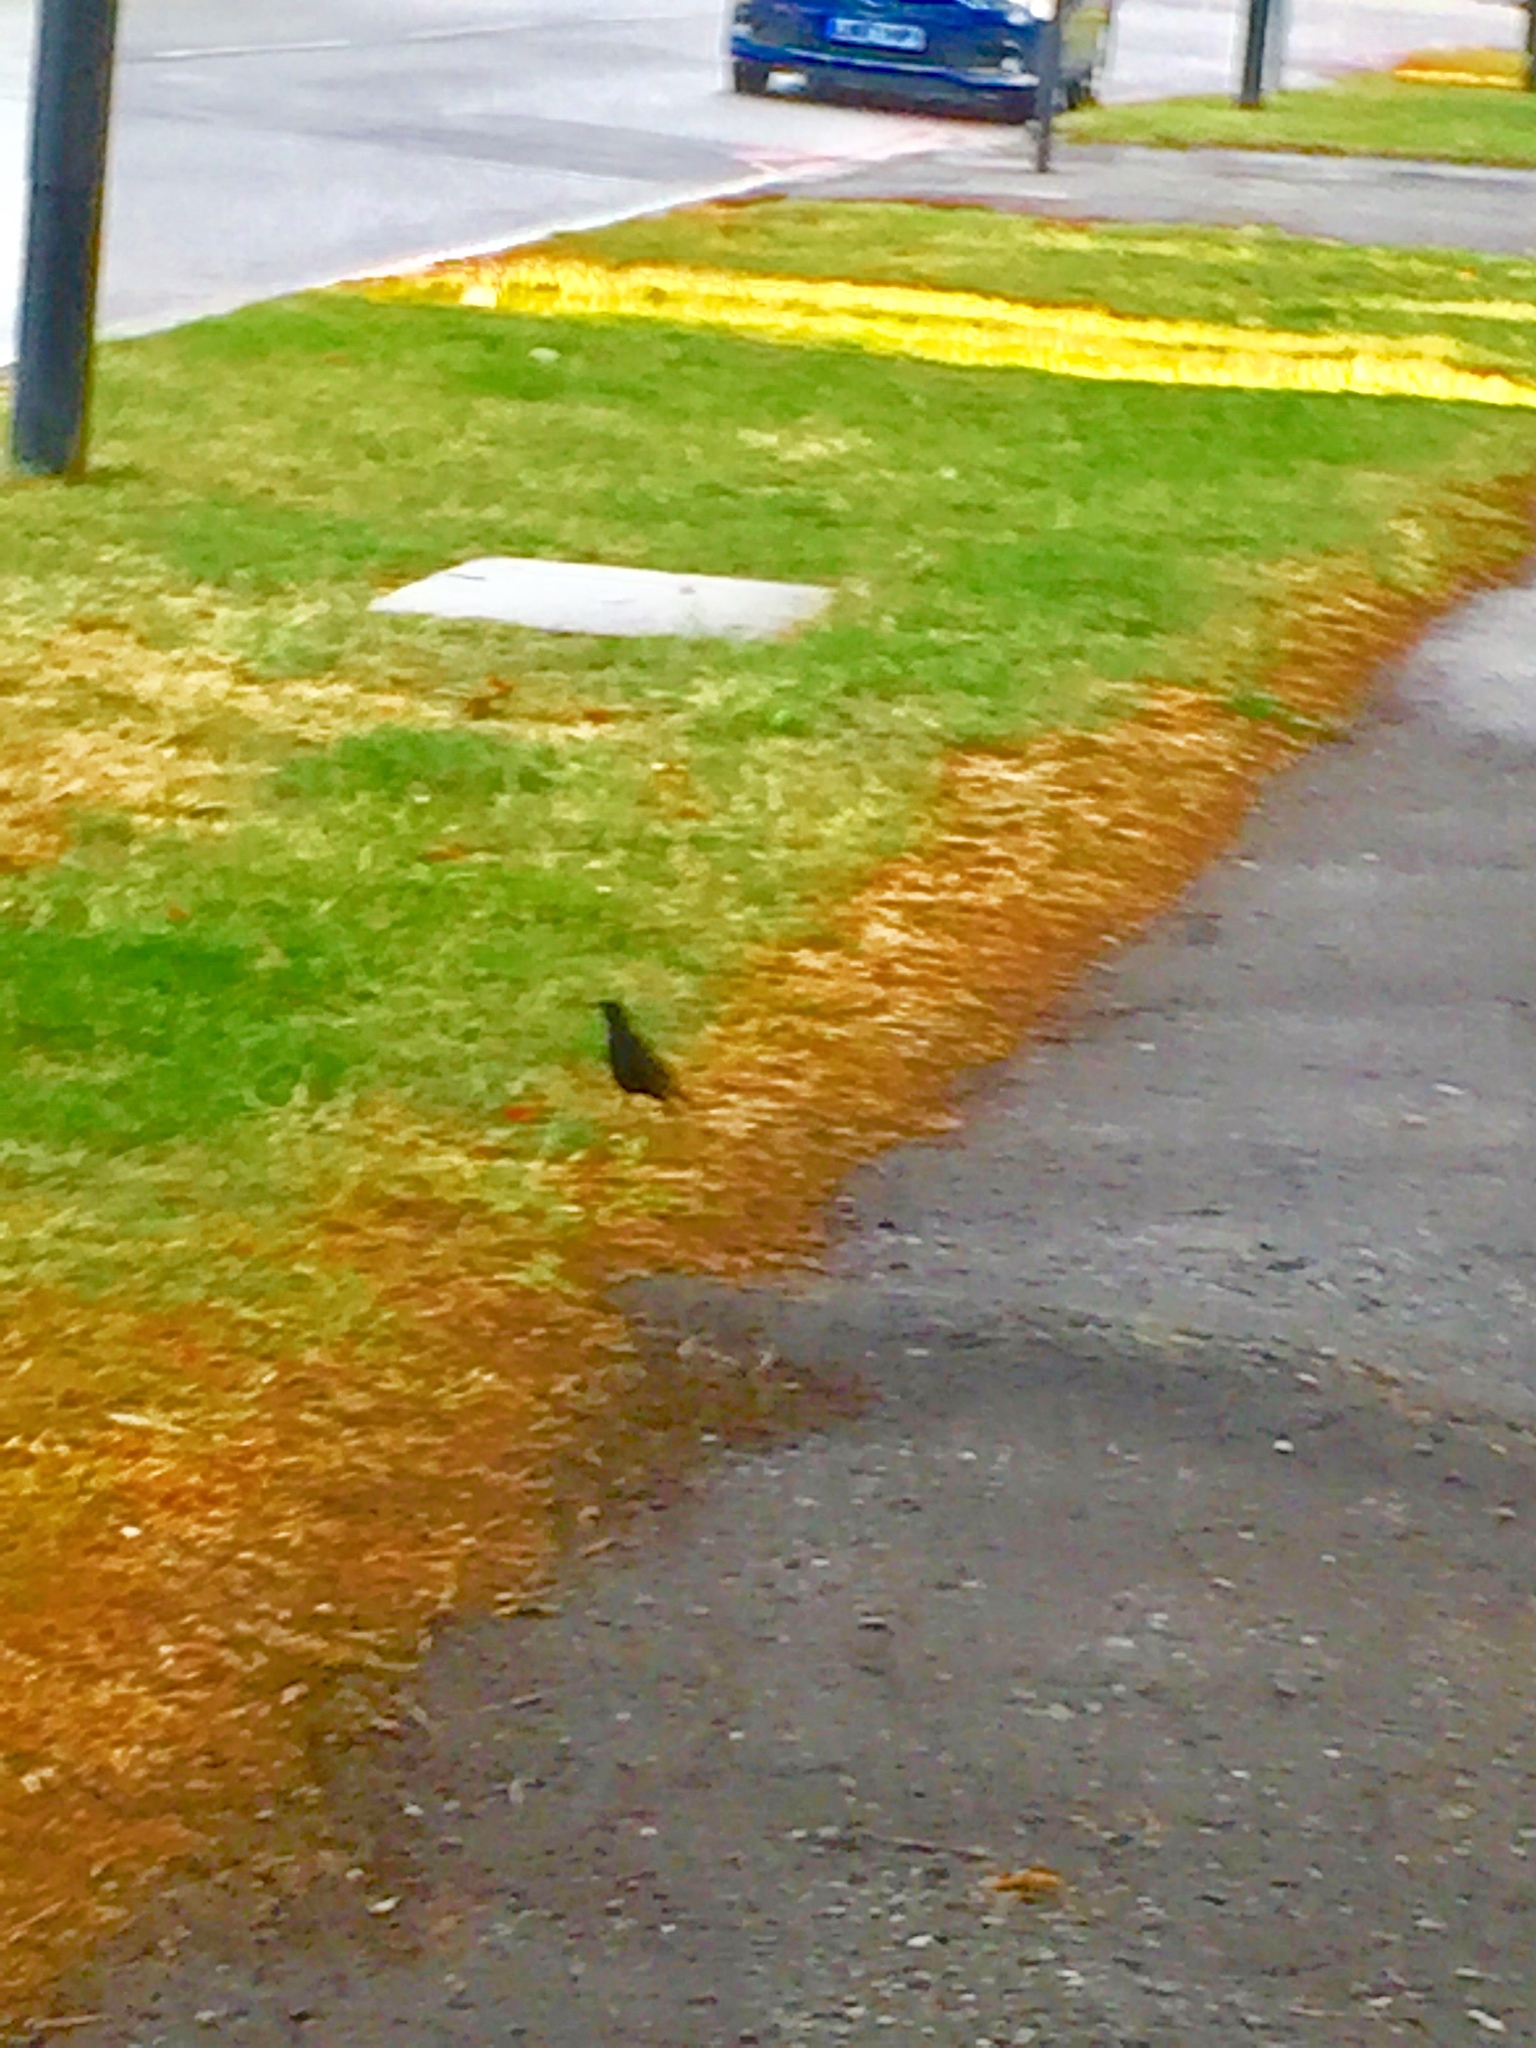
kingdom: Animalia
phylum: Chordata
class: Aves
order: Passeriformes
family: Sturnidae
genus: Sturnus
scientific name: Sturnus vulgaris
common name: Common starling
